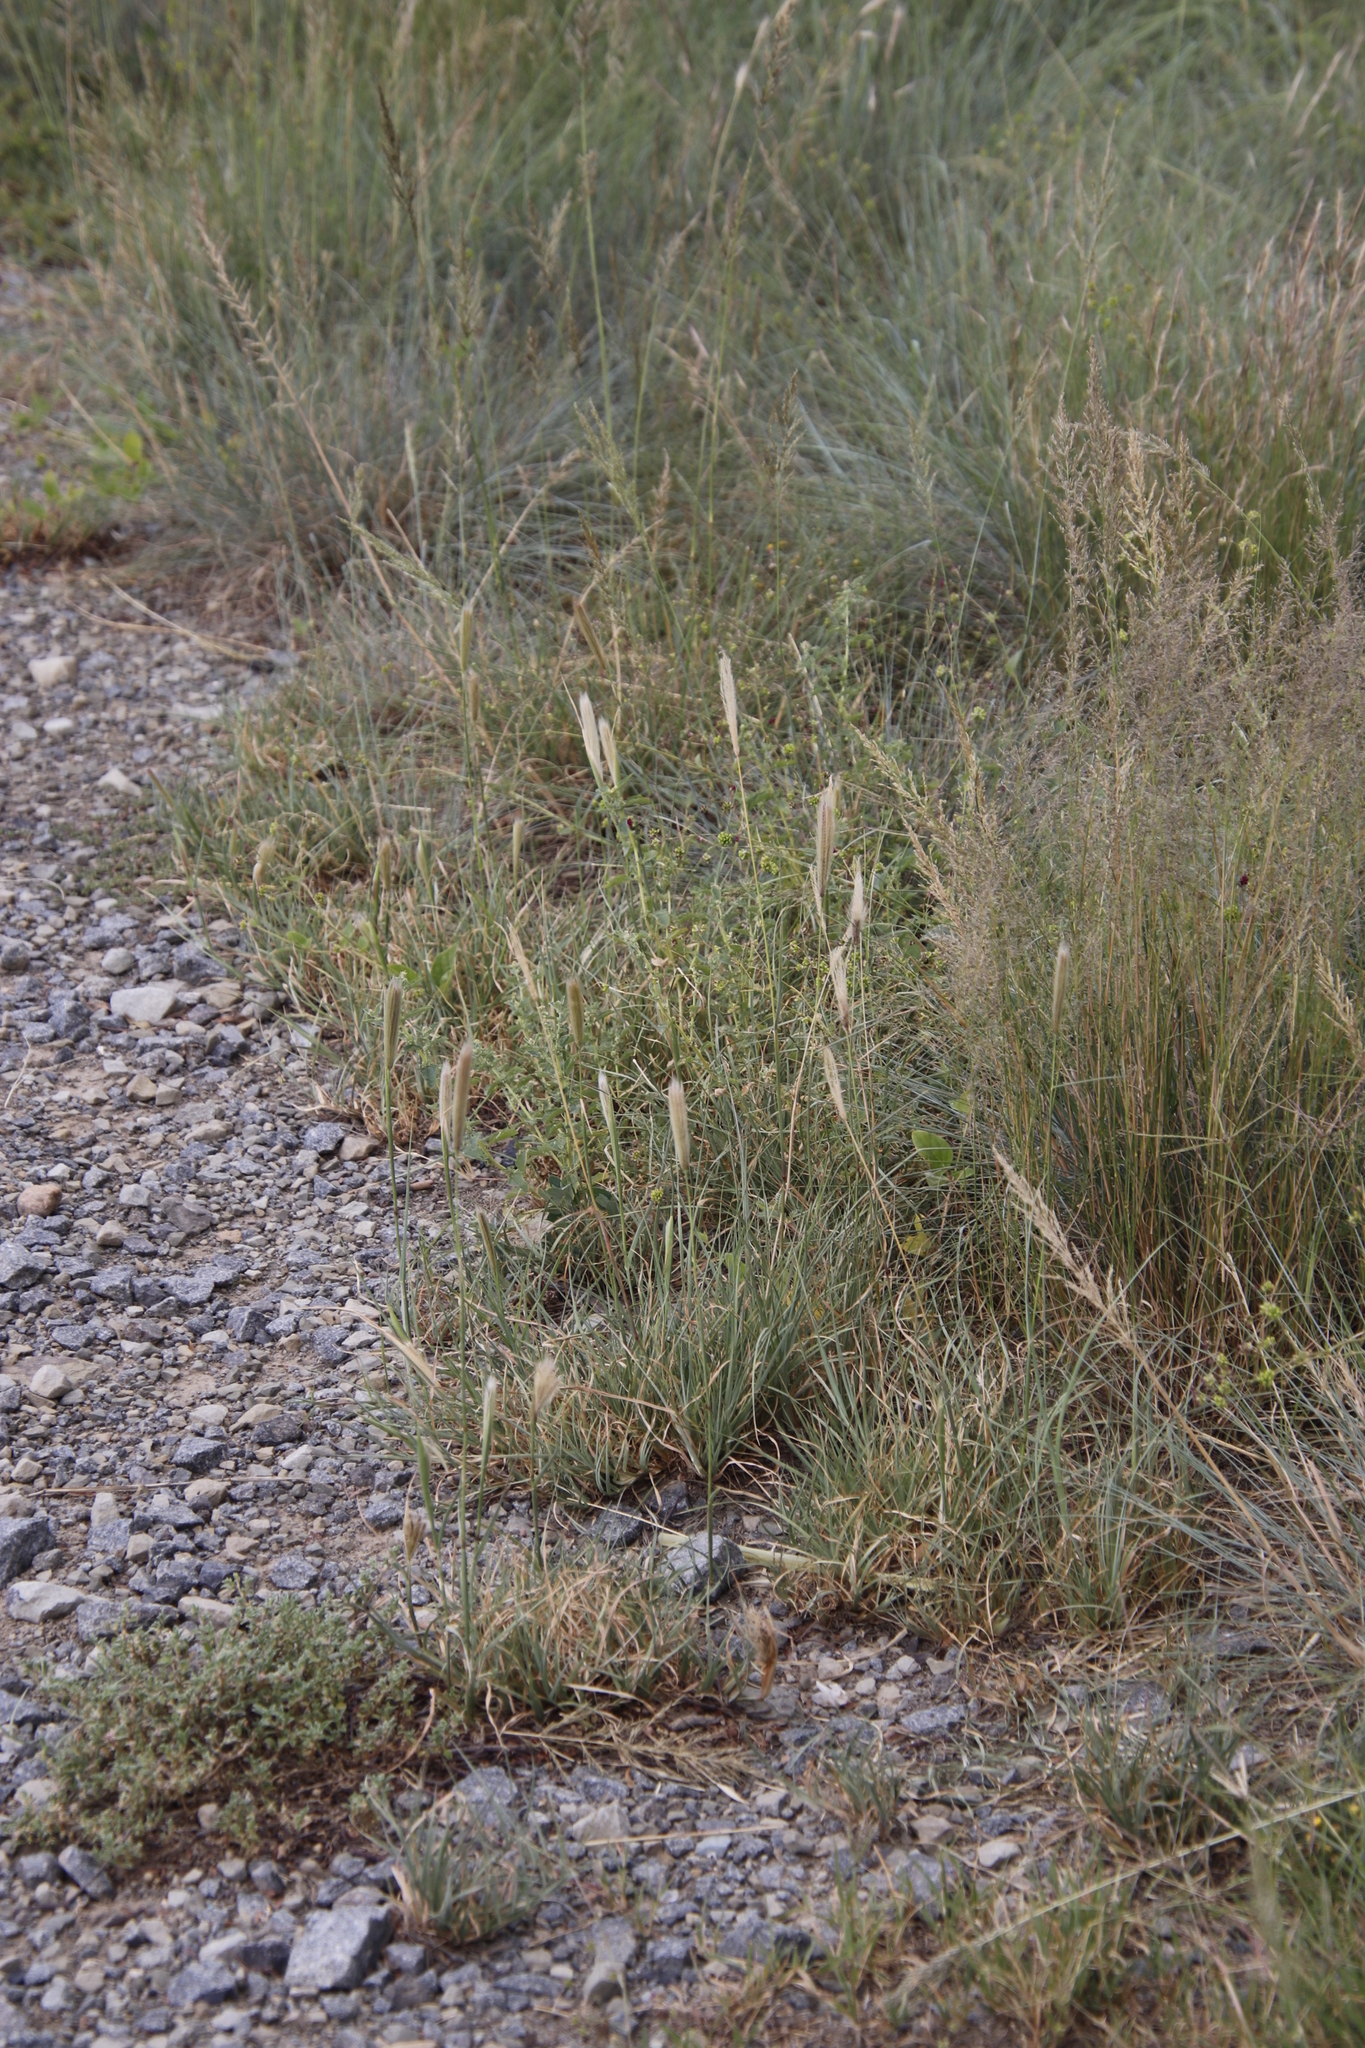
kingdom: Plantae
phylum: Tracheophyta
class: Liliopsida
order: Poales
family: Poaceae
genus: Chloris
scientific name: Chloris virgata
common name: Feathery rhodes-grass
